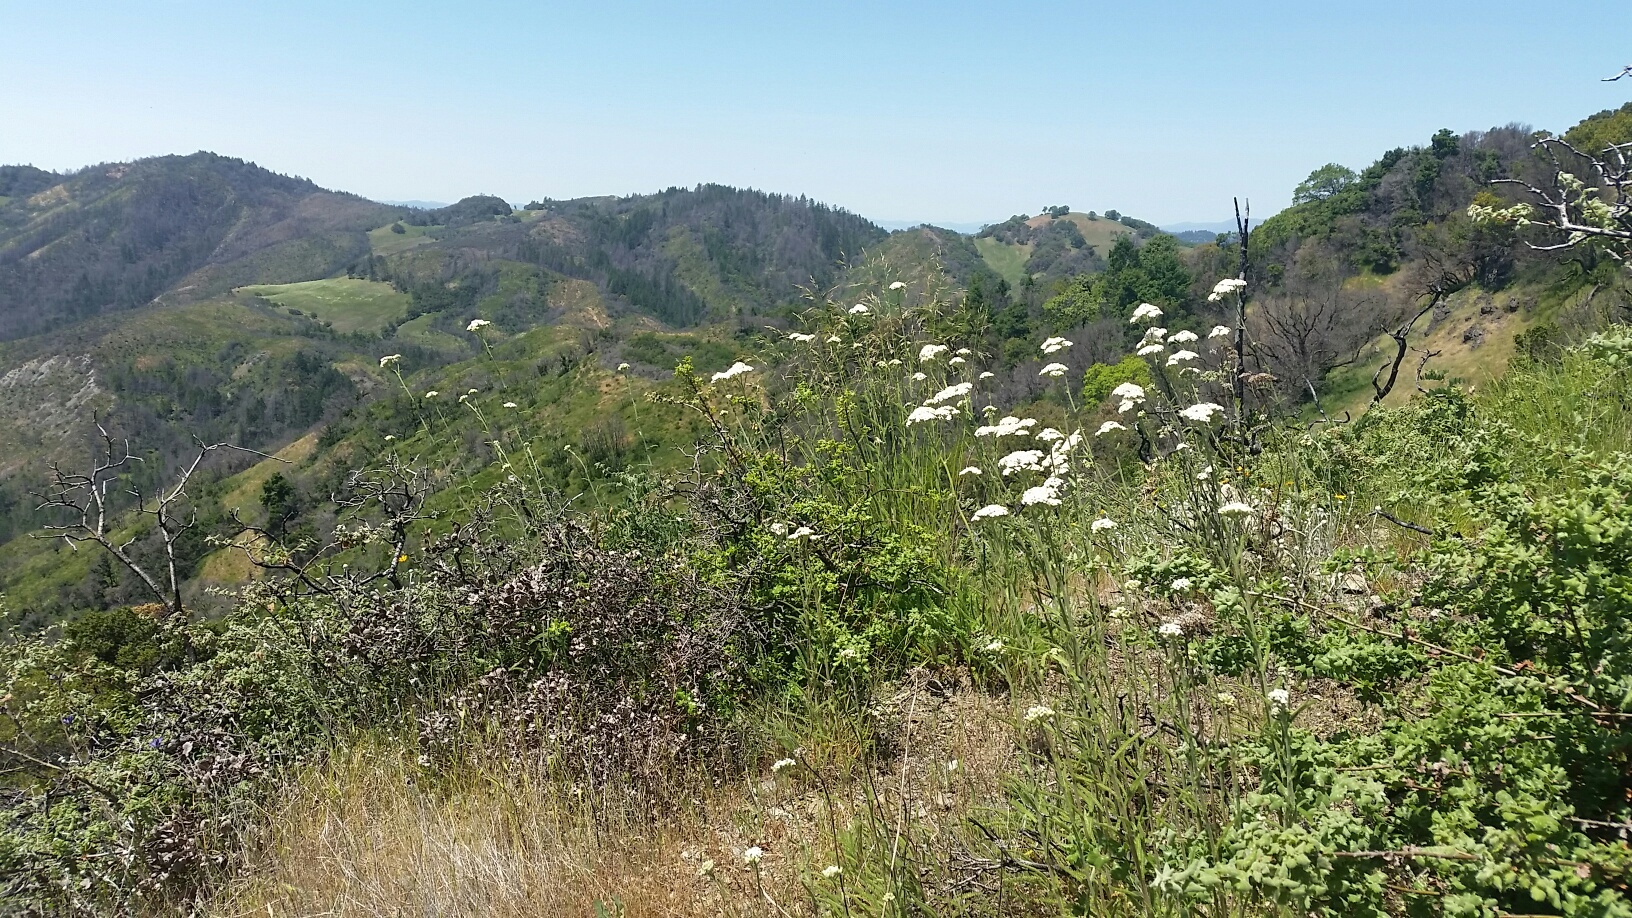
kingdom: Plantae
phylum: Tracheophyta
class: Magnoliopsida
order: Asterales
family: Asteraceae
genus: Achillea
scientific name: Achillea millefolium
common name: Yarrow
